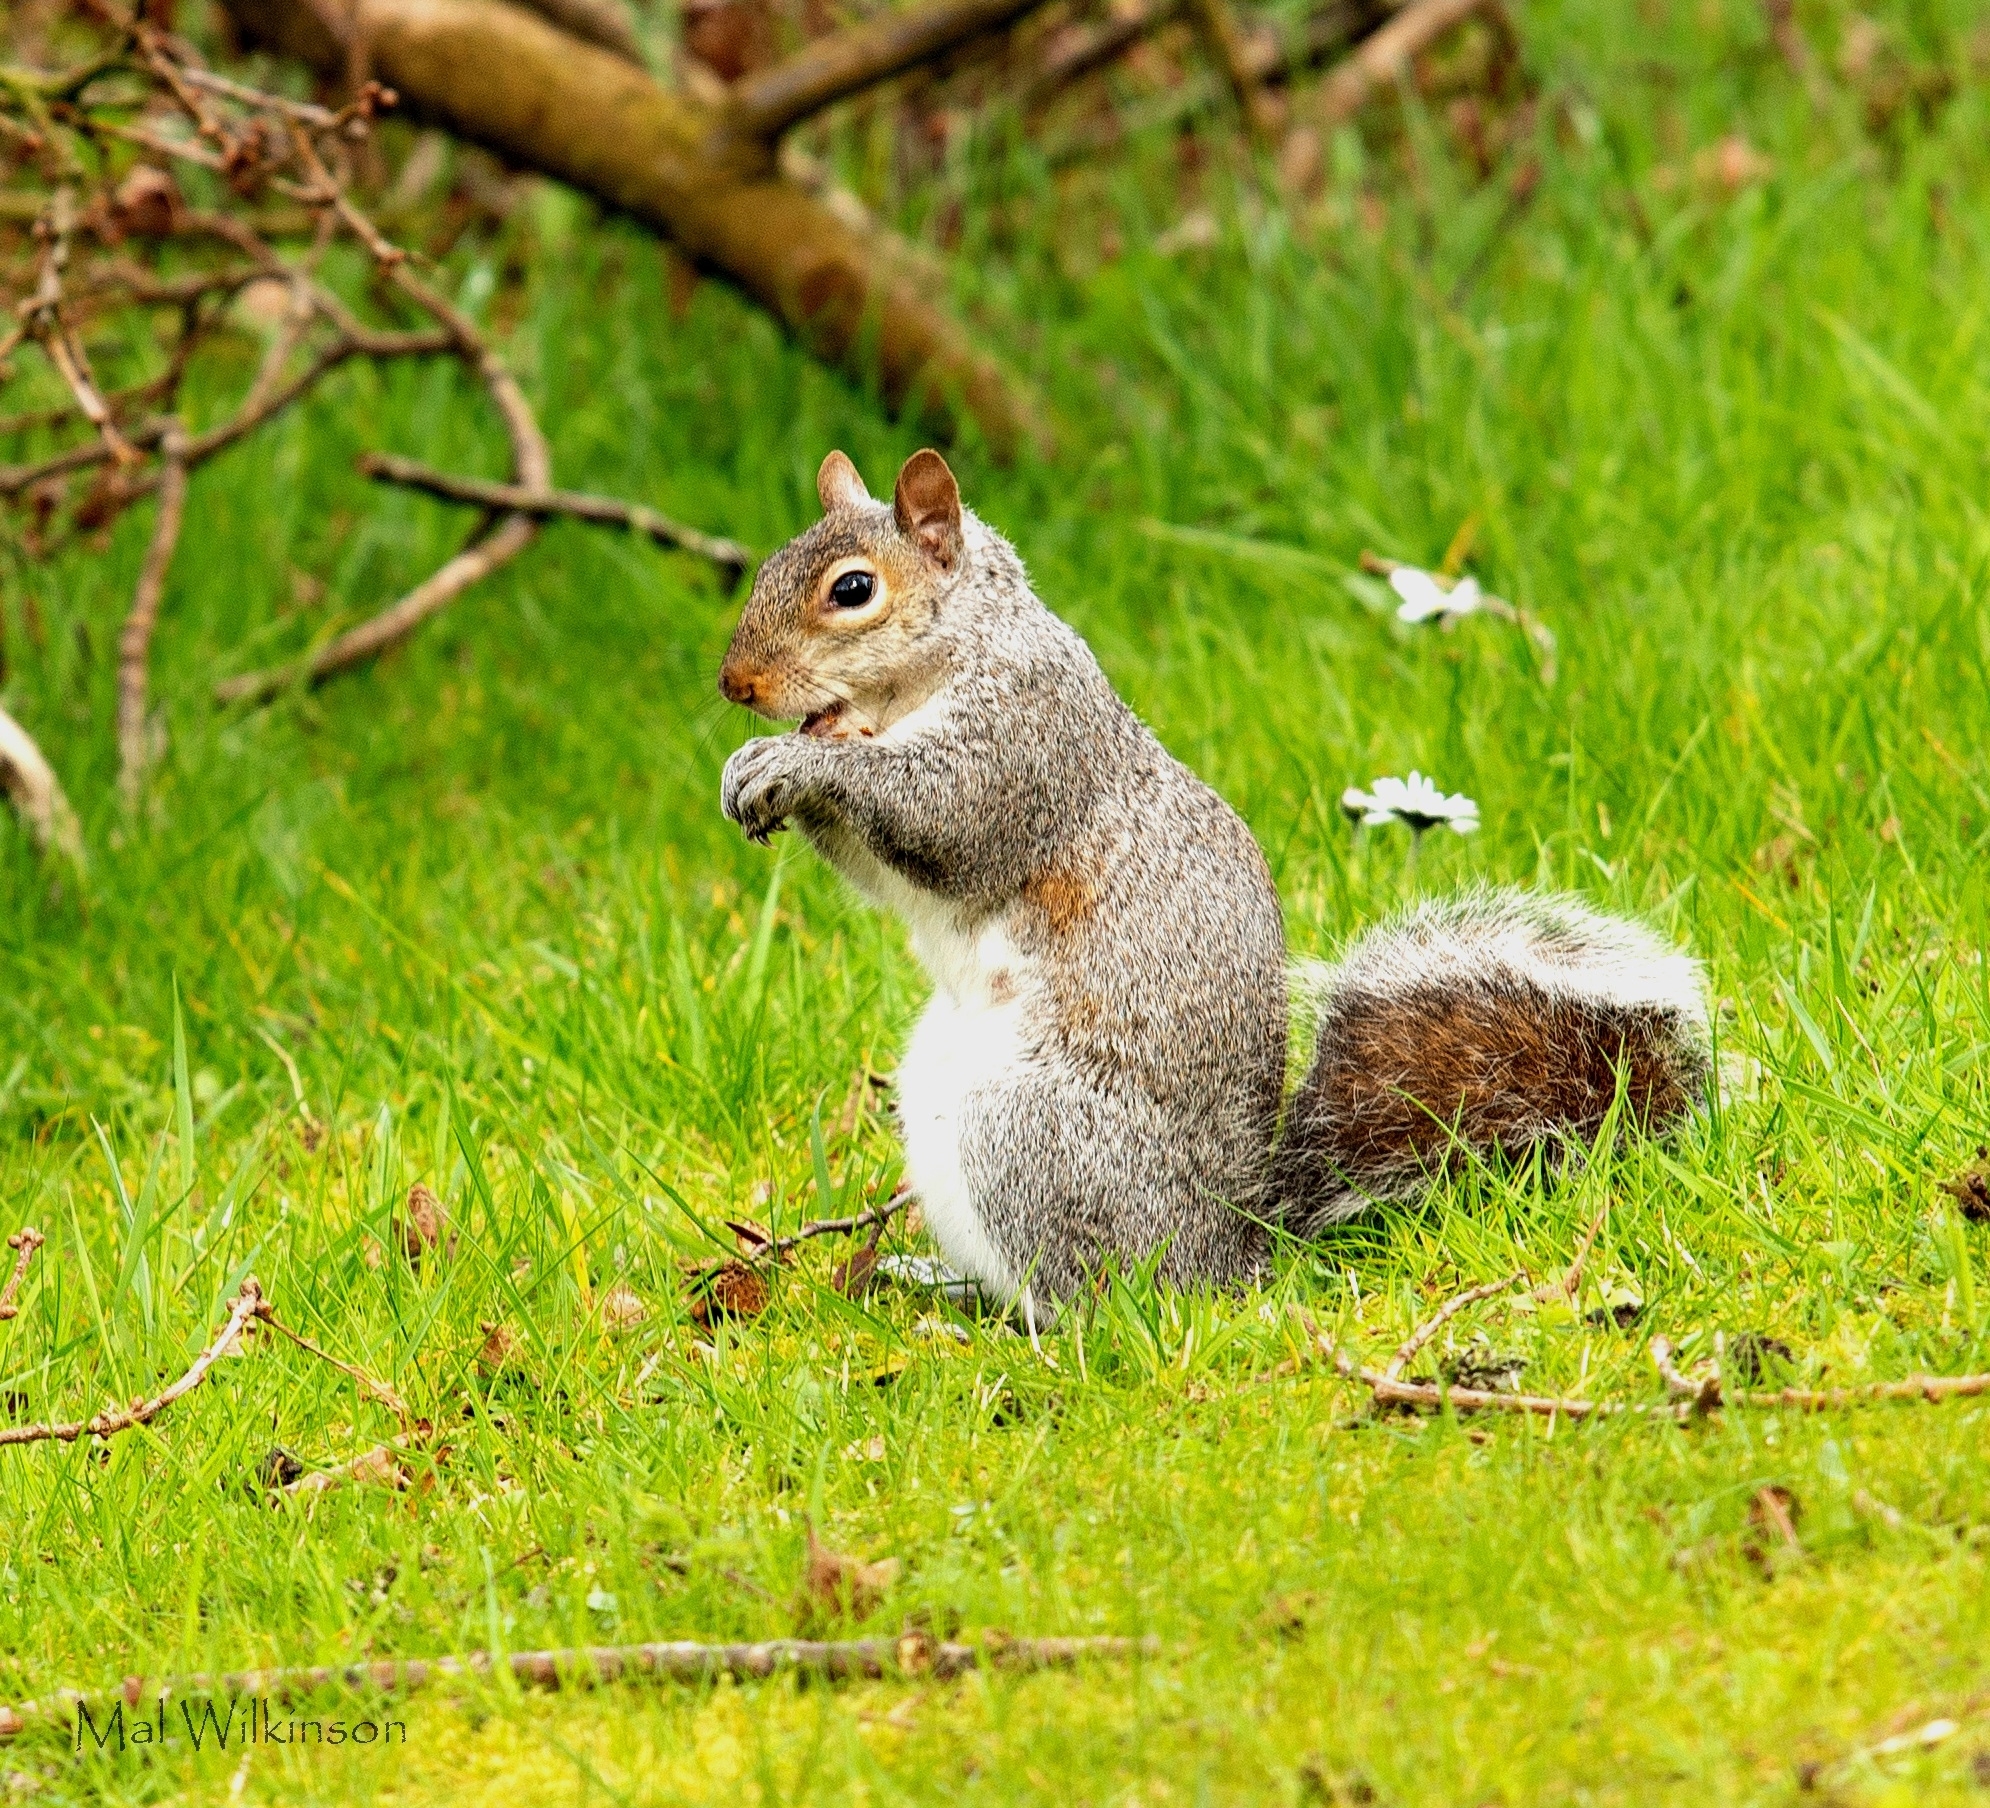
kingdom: Animalia
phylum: Chordata
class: Mammalia
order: Rodentia
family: Sciuridae
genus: Sciurus
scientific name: Sciurus carolinensis
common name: Eastern gray squirrel
